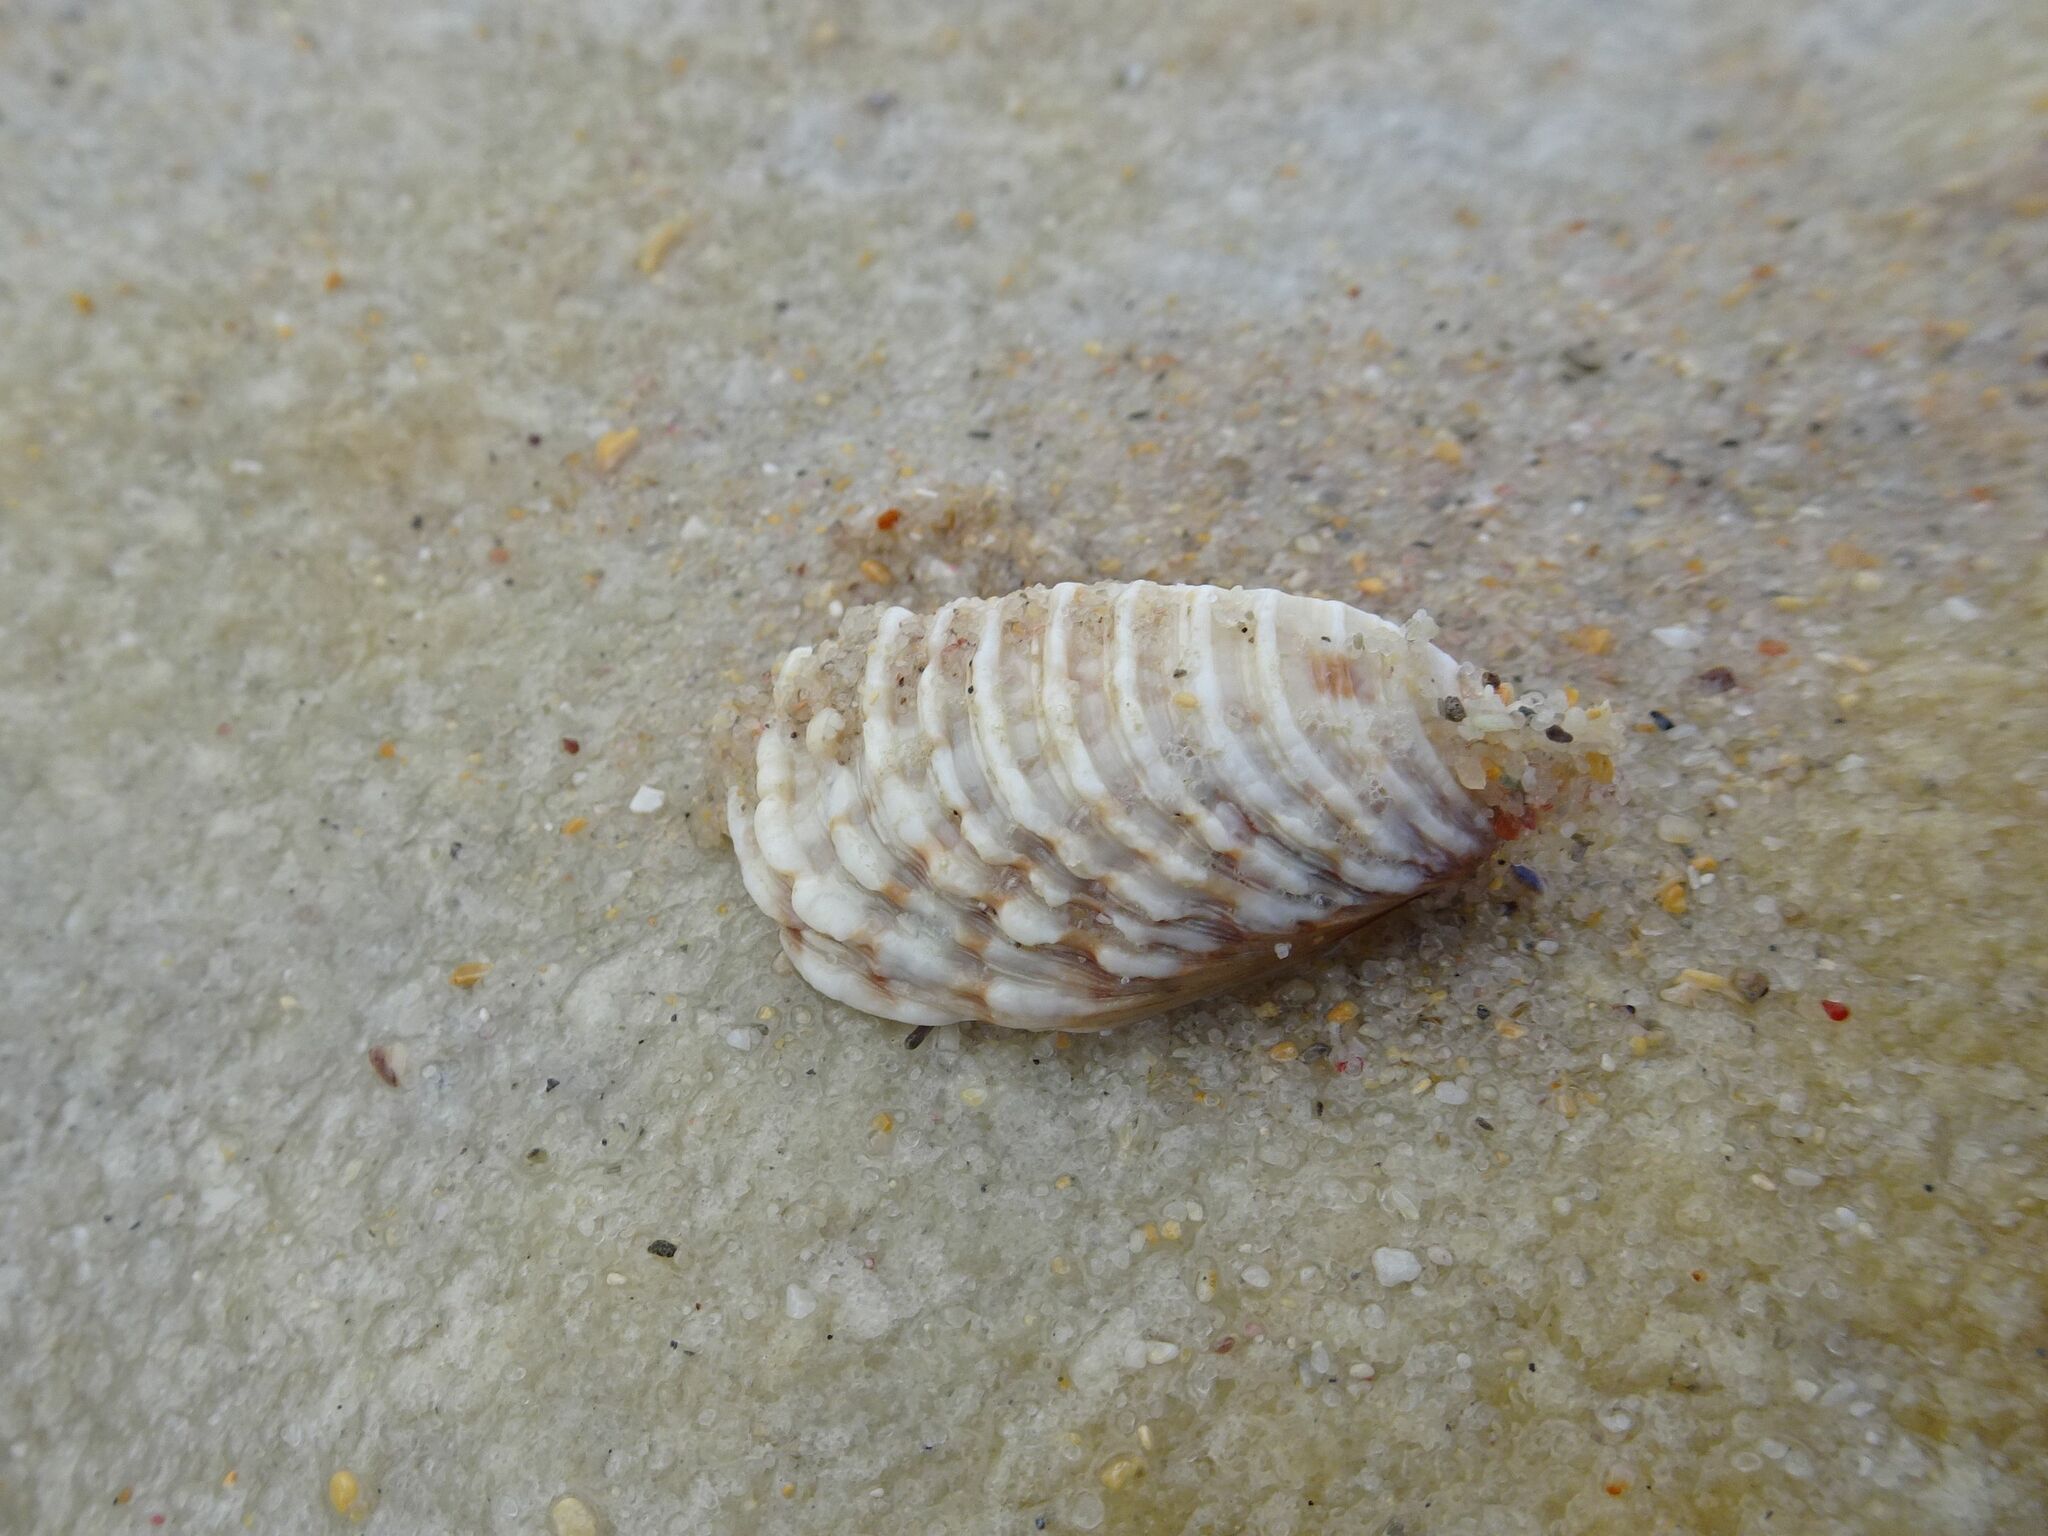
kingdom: Animalia
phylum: Mollusca
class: Bivalvia
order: Venerida
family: Veneridae
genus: Venus
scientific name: Venus verrucosa
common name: Warty venus
